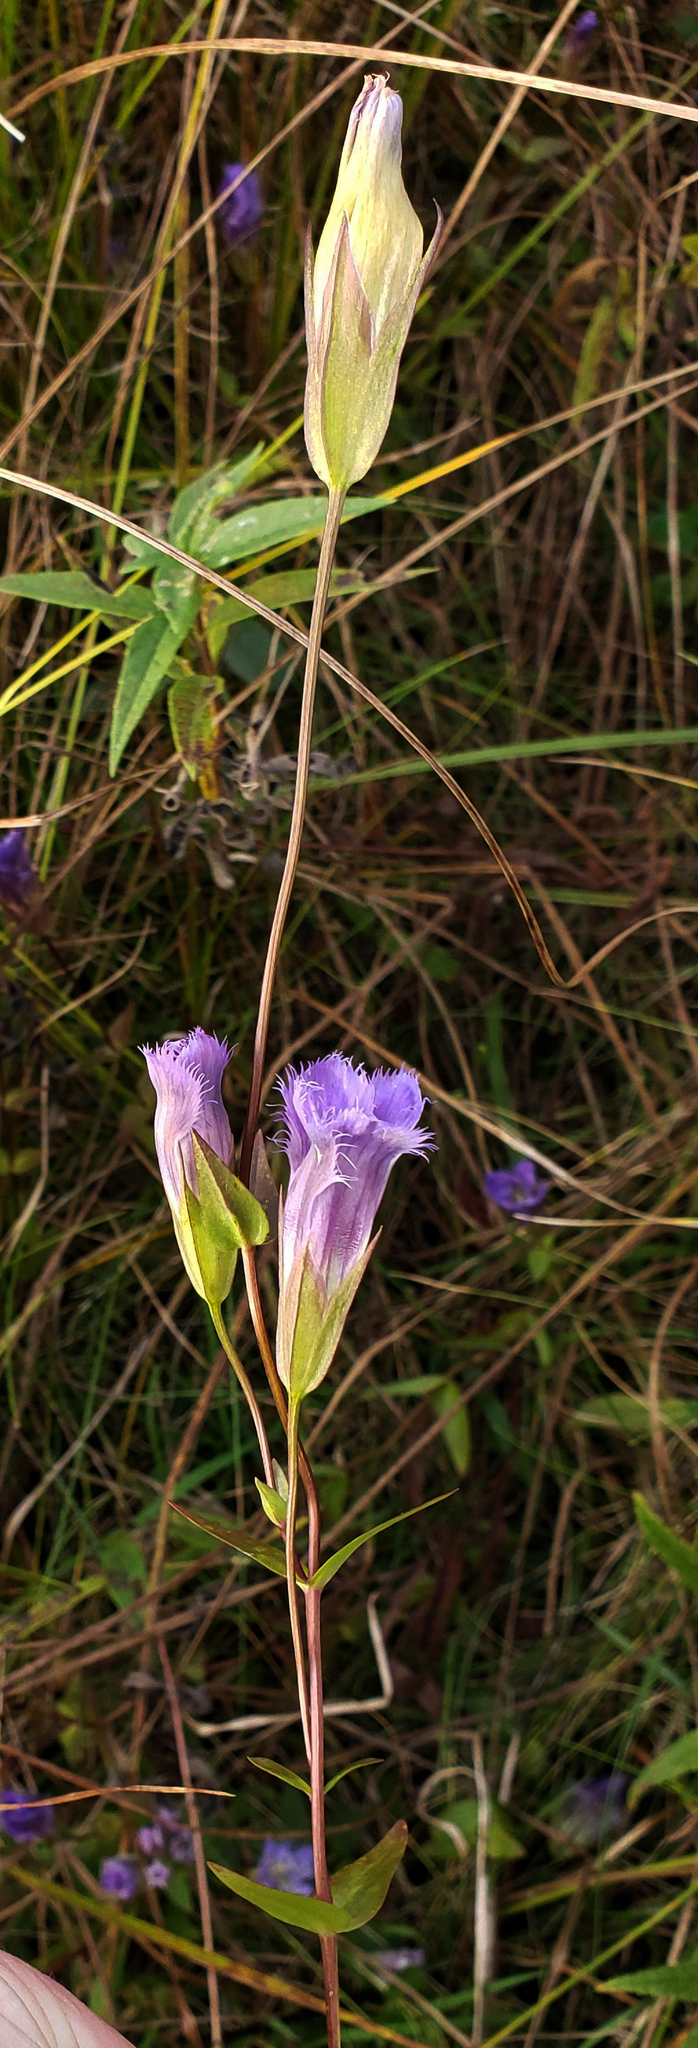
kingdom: Plantae
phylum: Tracheophyta
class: Magnoliopsida
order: Gentianales
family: Gentianaceae
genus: Gentianopsis
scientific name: Gentianopsis crinita
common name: Fringed-gentian
